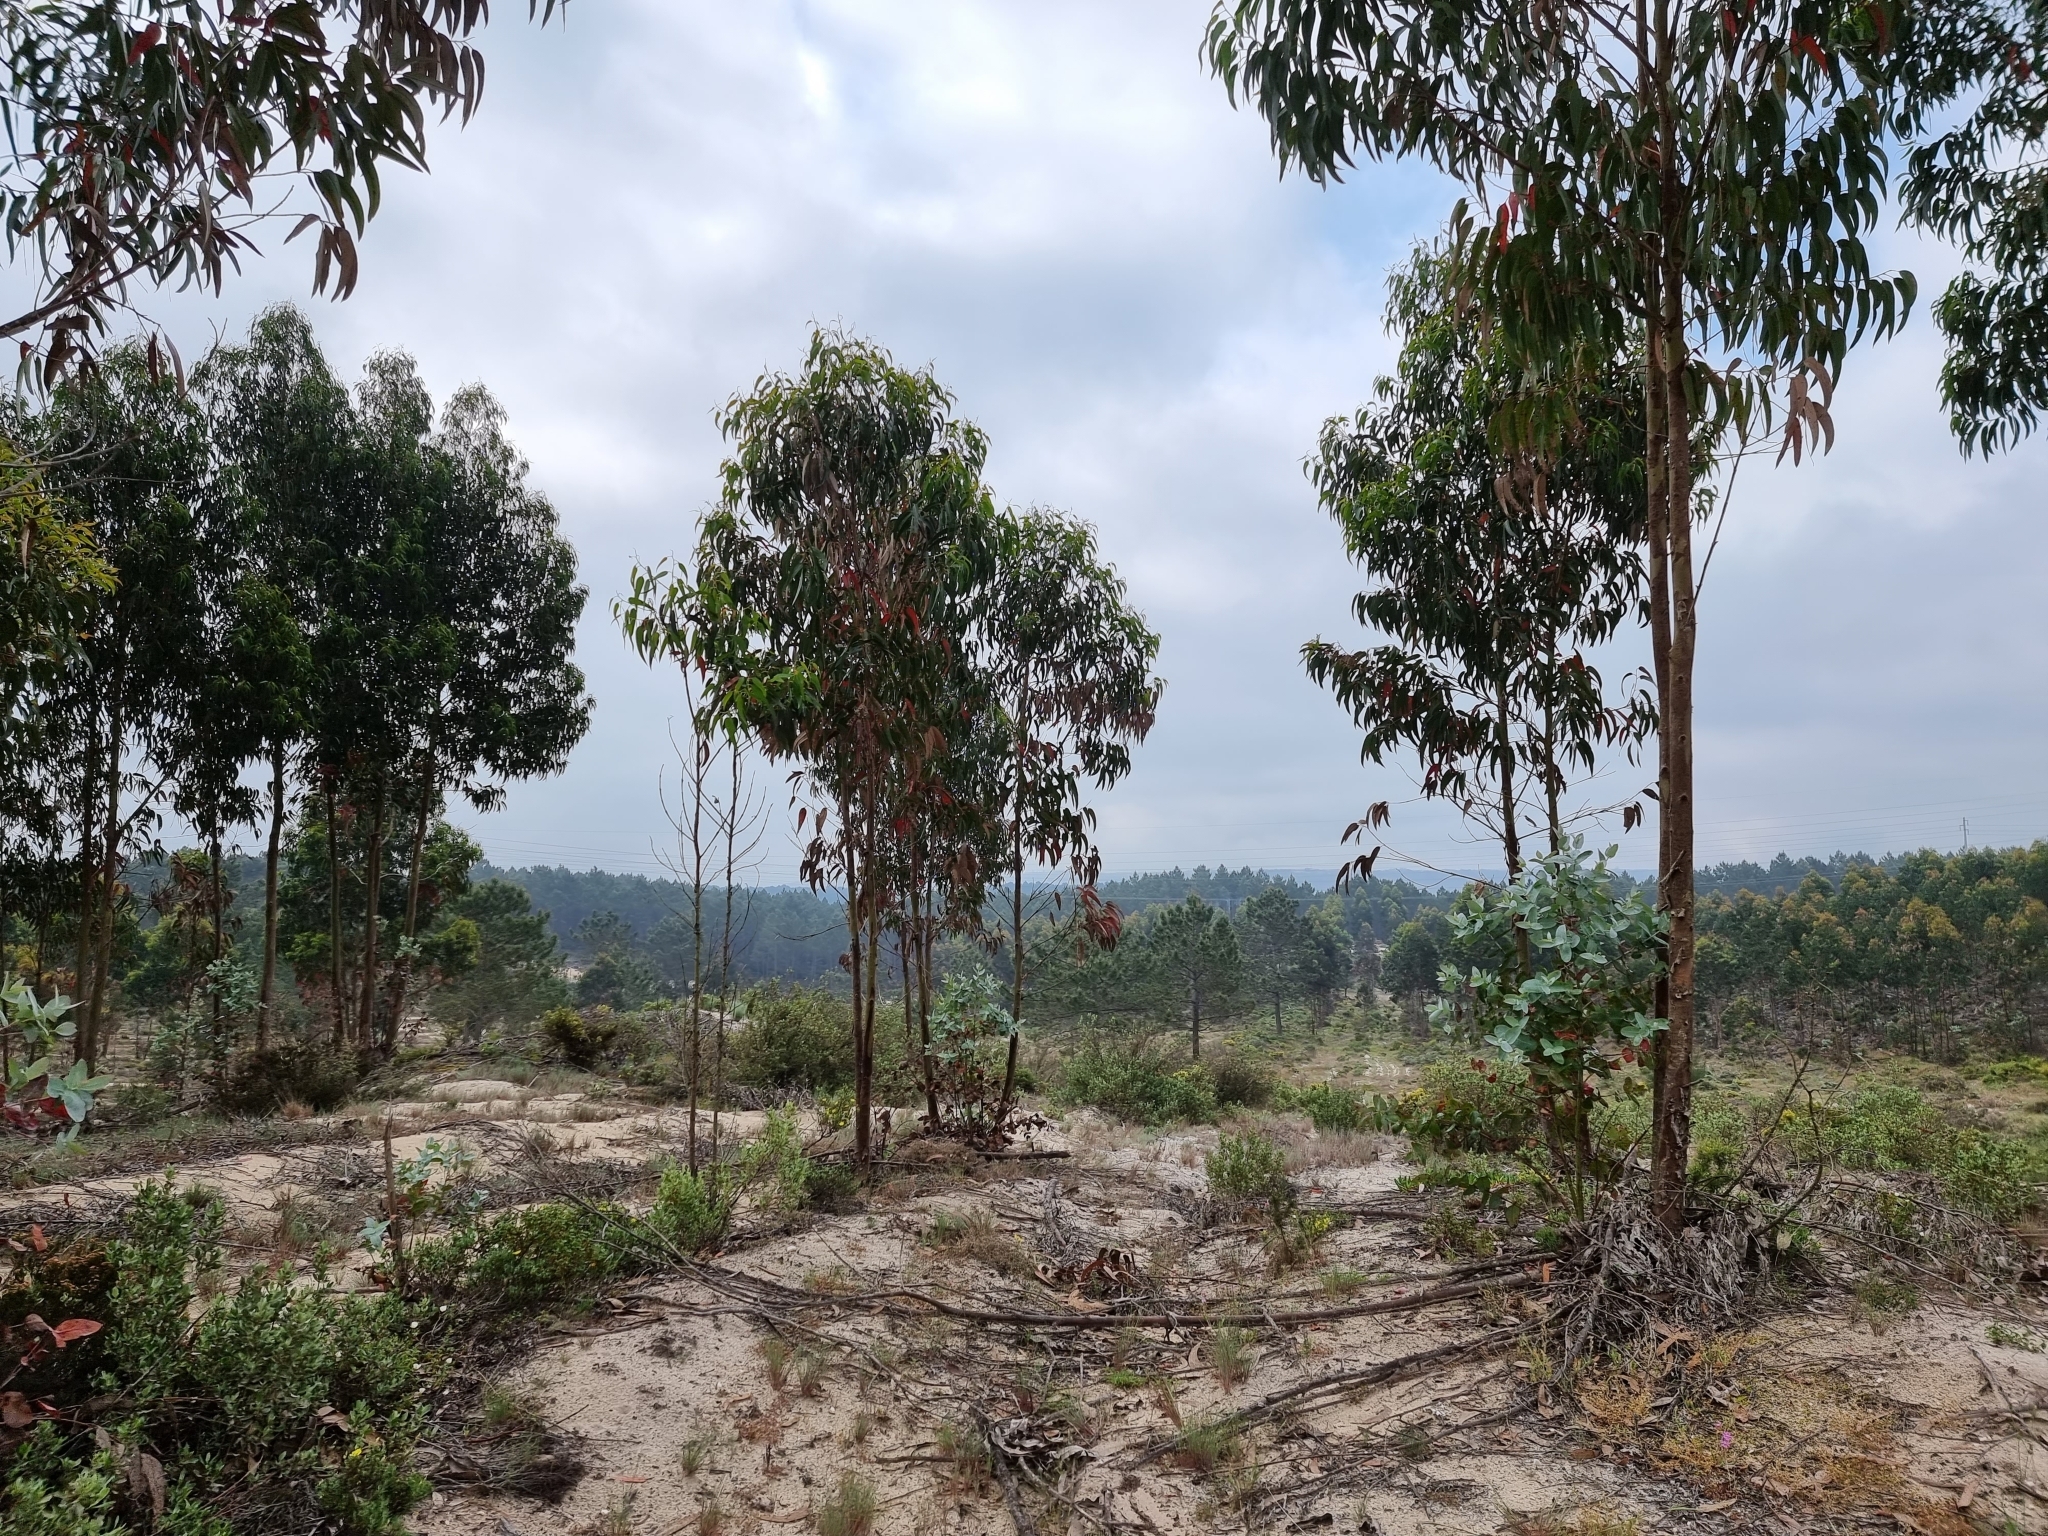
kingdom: Plantae
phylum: Tracheophyta
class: Magnoliopsida
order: Myrtales
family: Myrtaceae
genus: Eucalyptus
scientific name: Eucalyptus globulus
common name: Southern blue-gum
